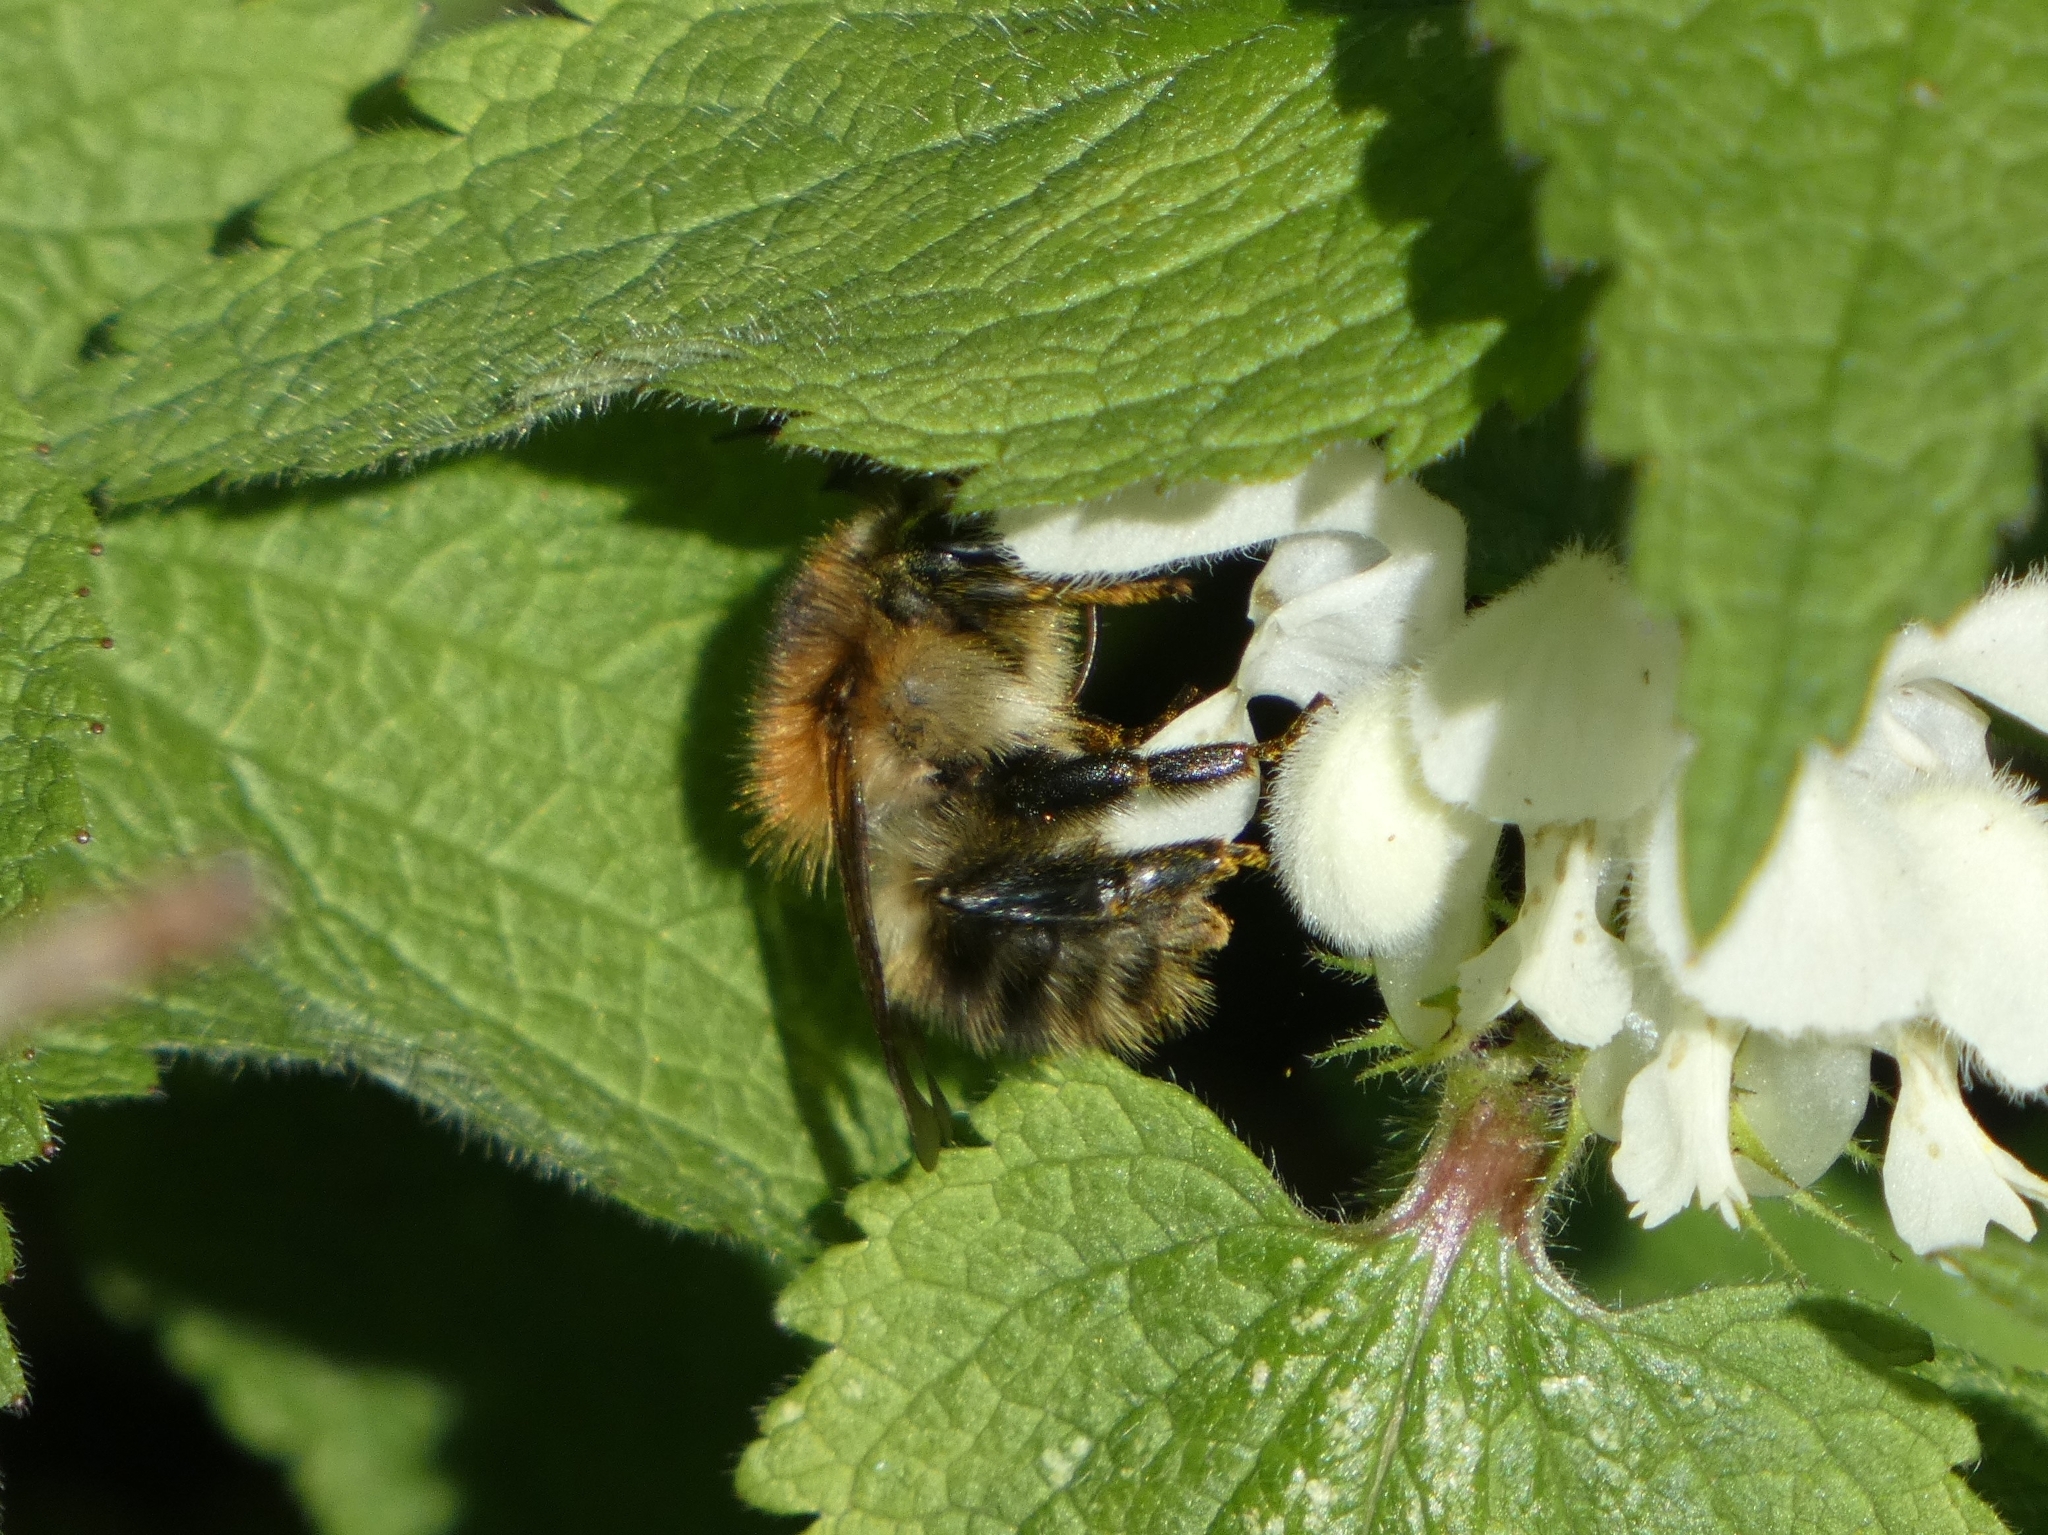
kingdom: Animalia
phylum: Arthropoda
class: Insecta
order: Hymenoptera
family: Apidae
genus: Bombus
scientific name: Bombus pascuorum
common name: Common carder bee
